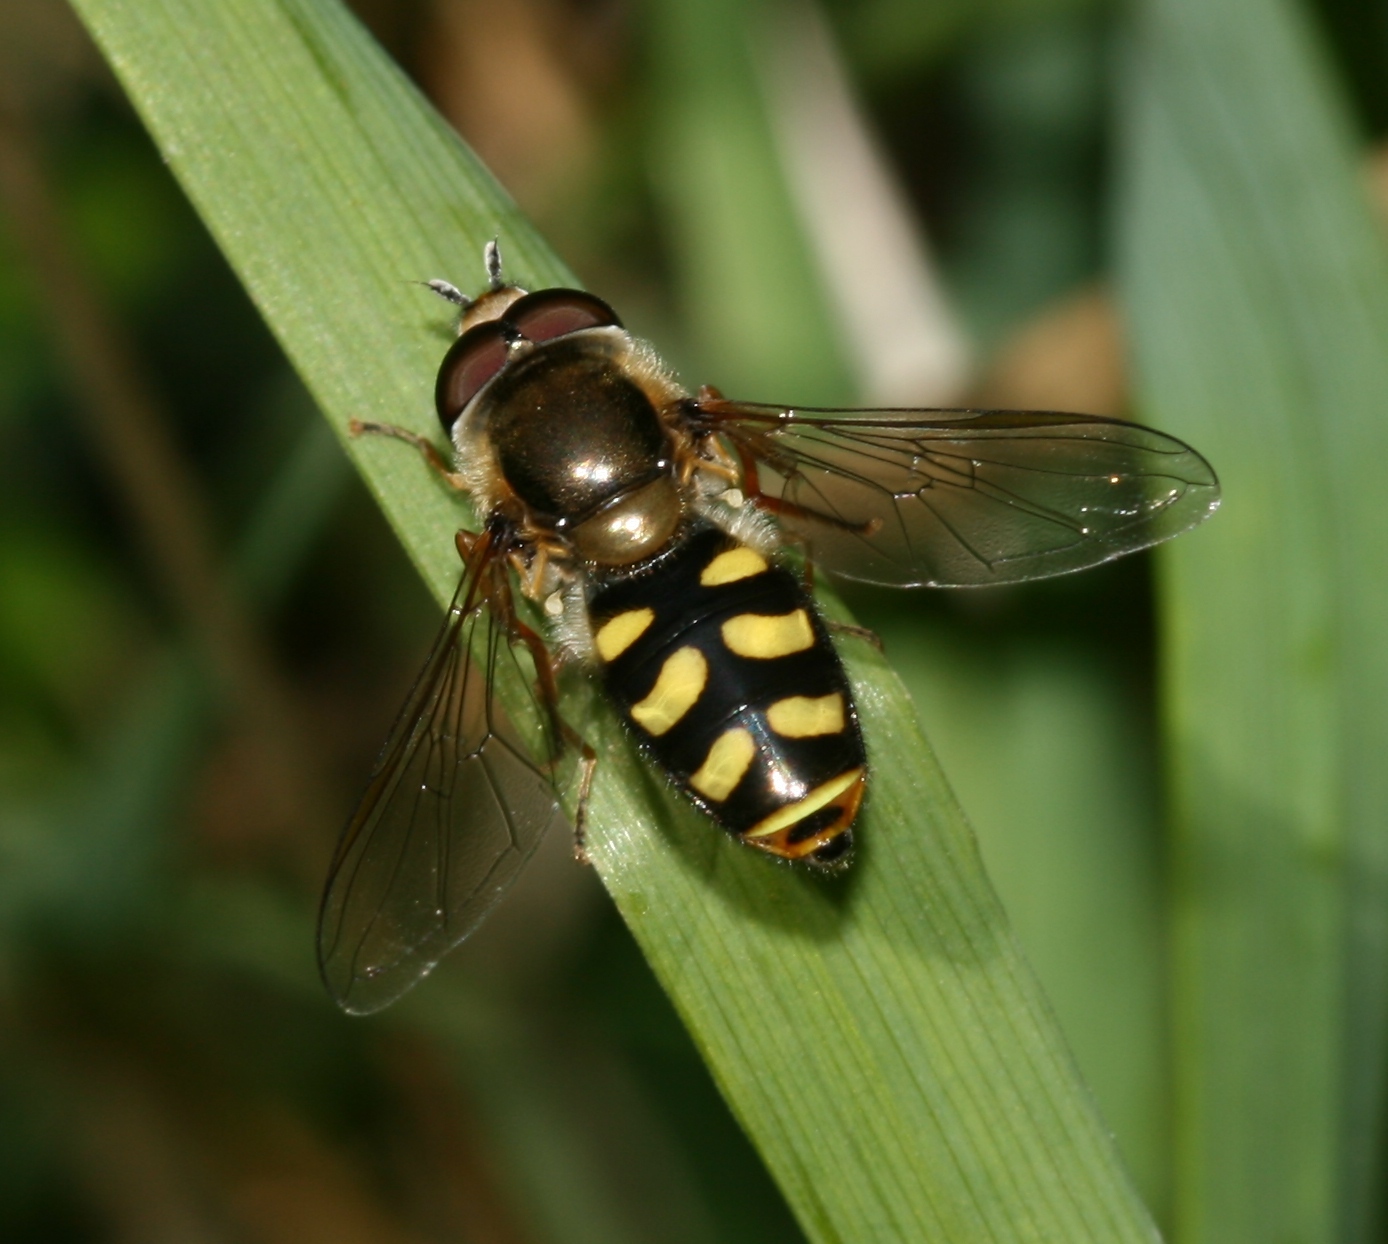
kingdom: Animalia
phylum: Arthropoda
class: Insecta
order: Diptera
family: Syrphidae
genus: Eupeodes
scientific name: Eupeodes
